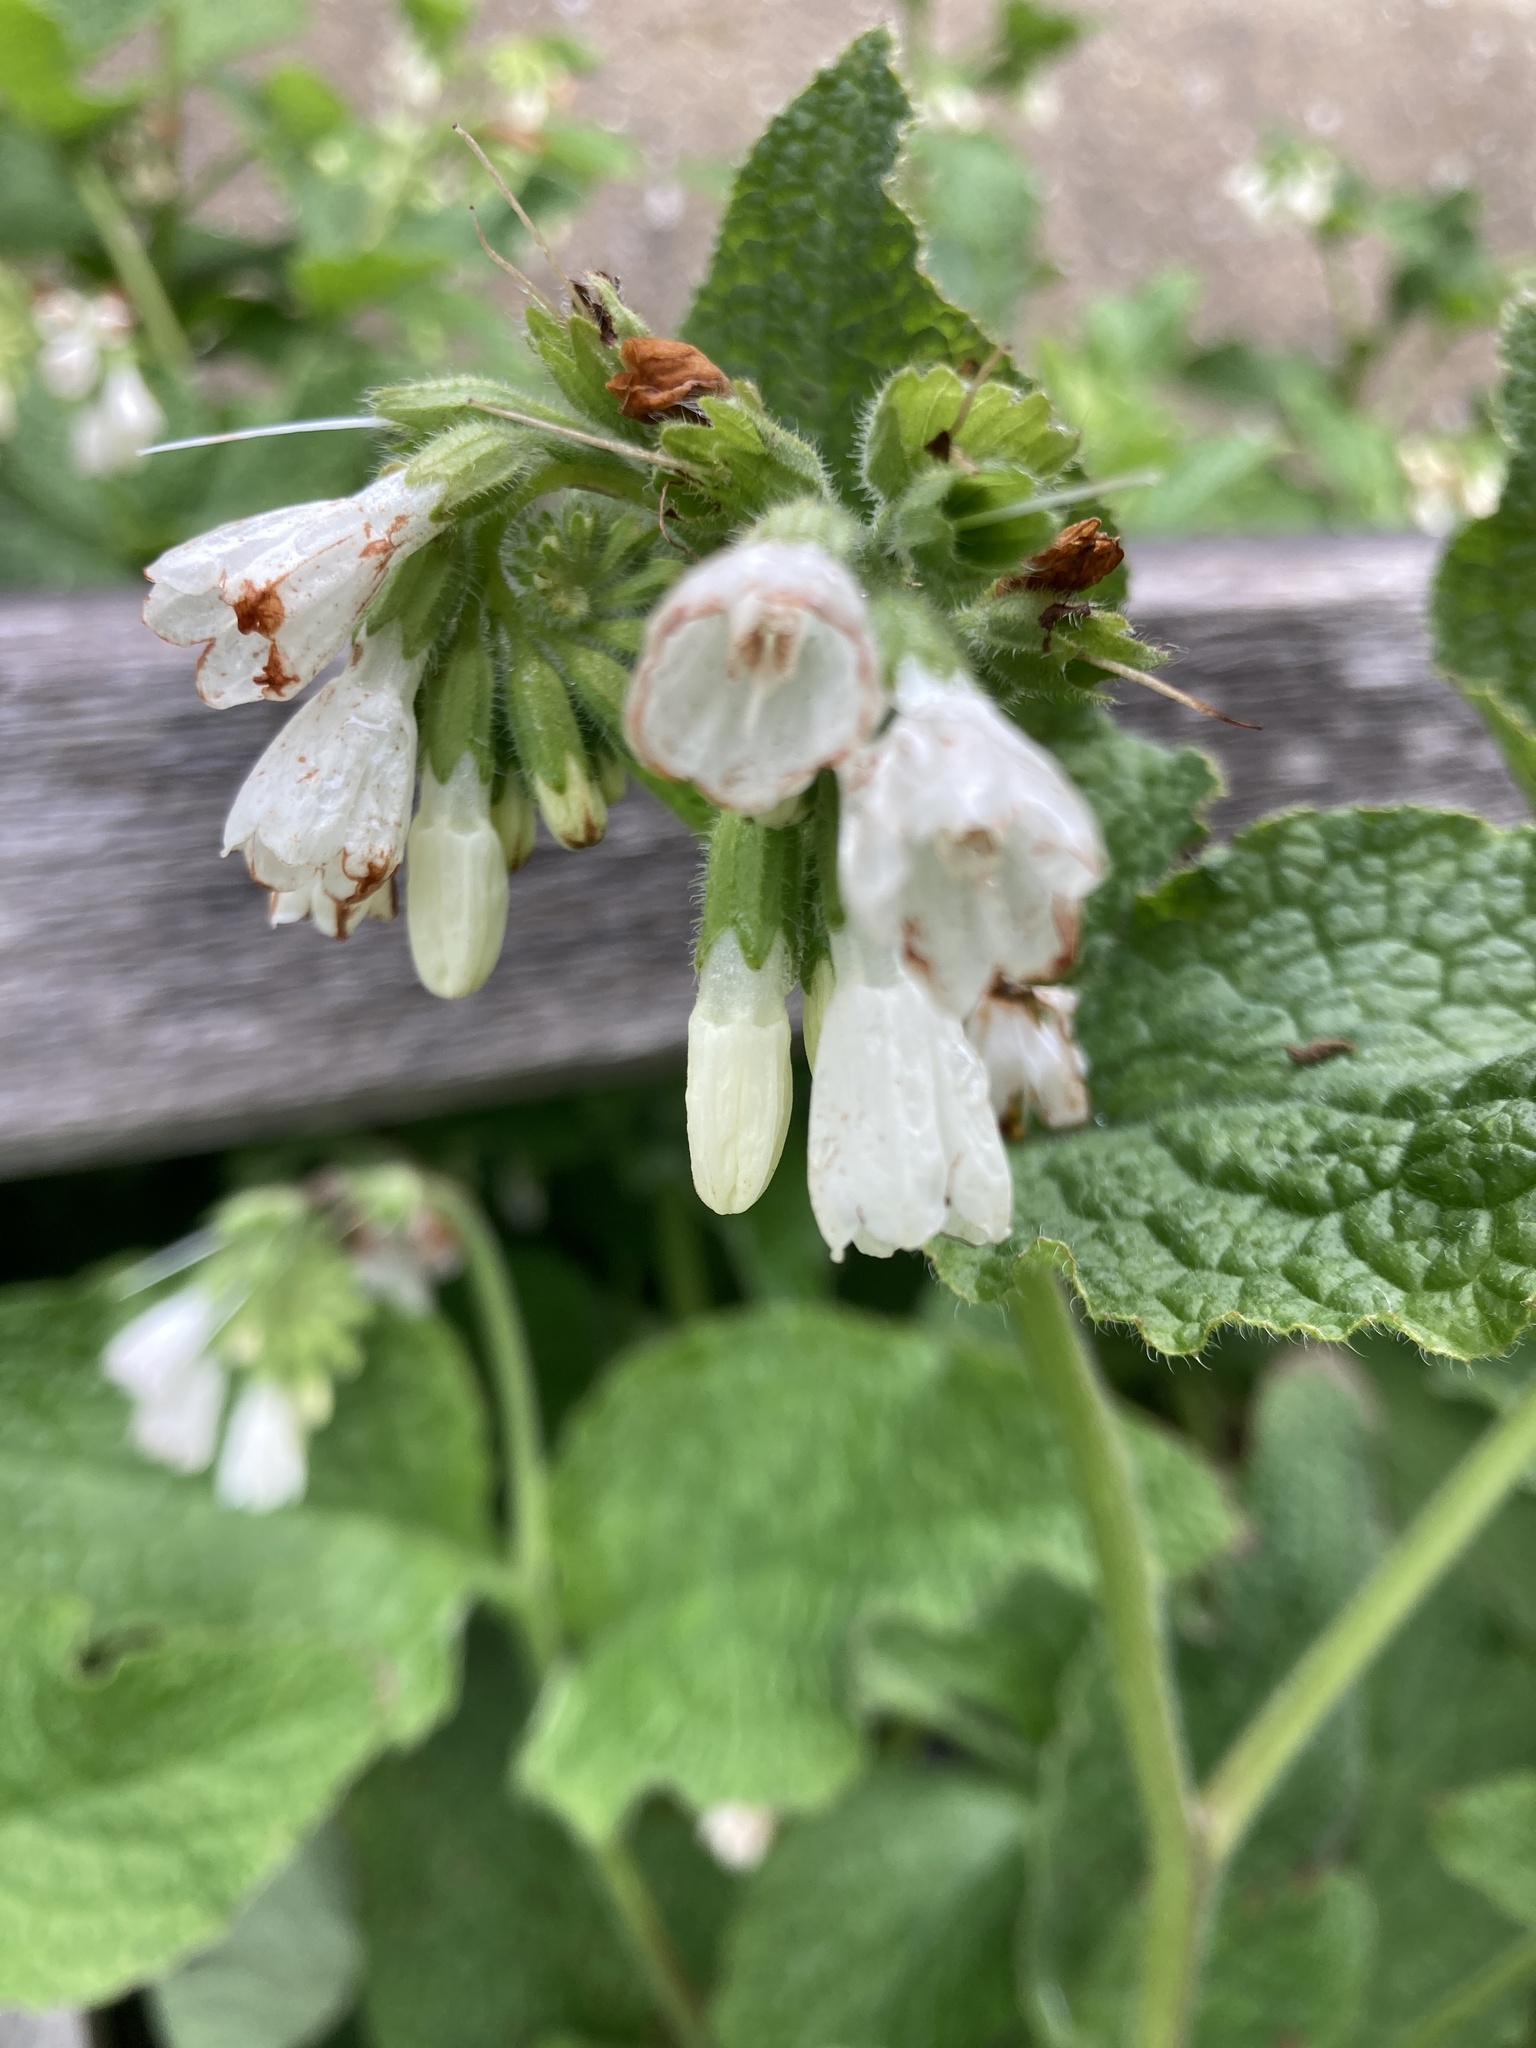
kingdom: Plantae
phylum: Tracheophyta
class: Magnoliopsida
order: Boraginales
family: Boraginaceae
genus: Symphytum
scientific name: Symphytum orientale
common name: White comfrey
